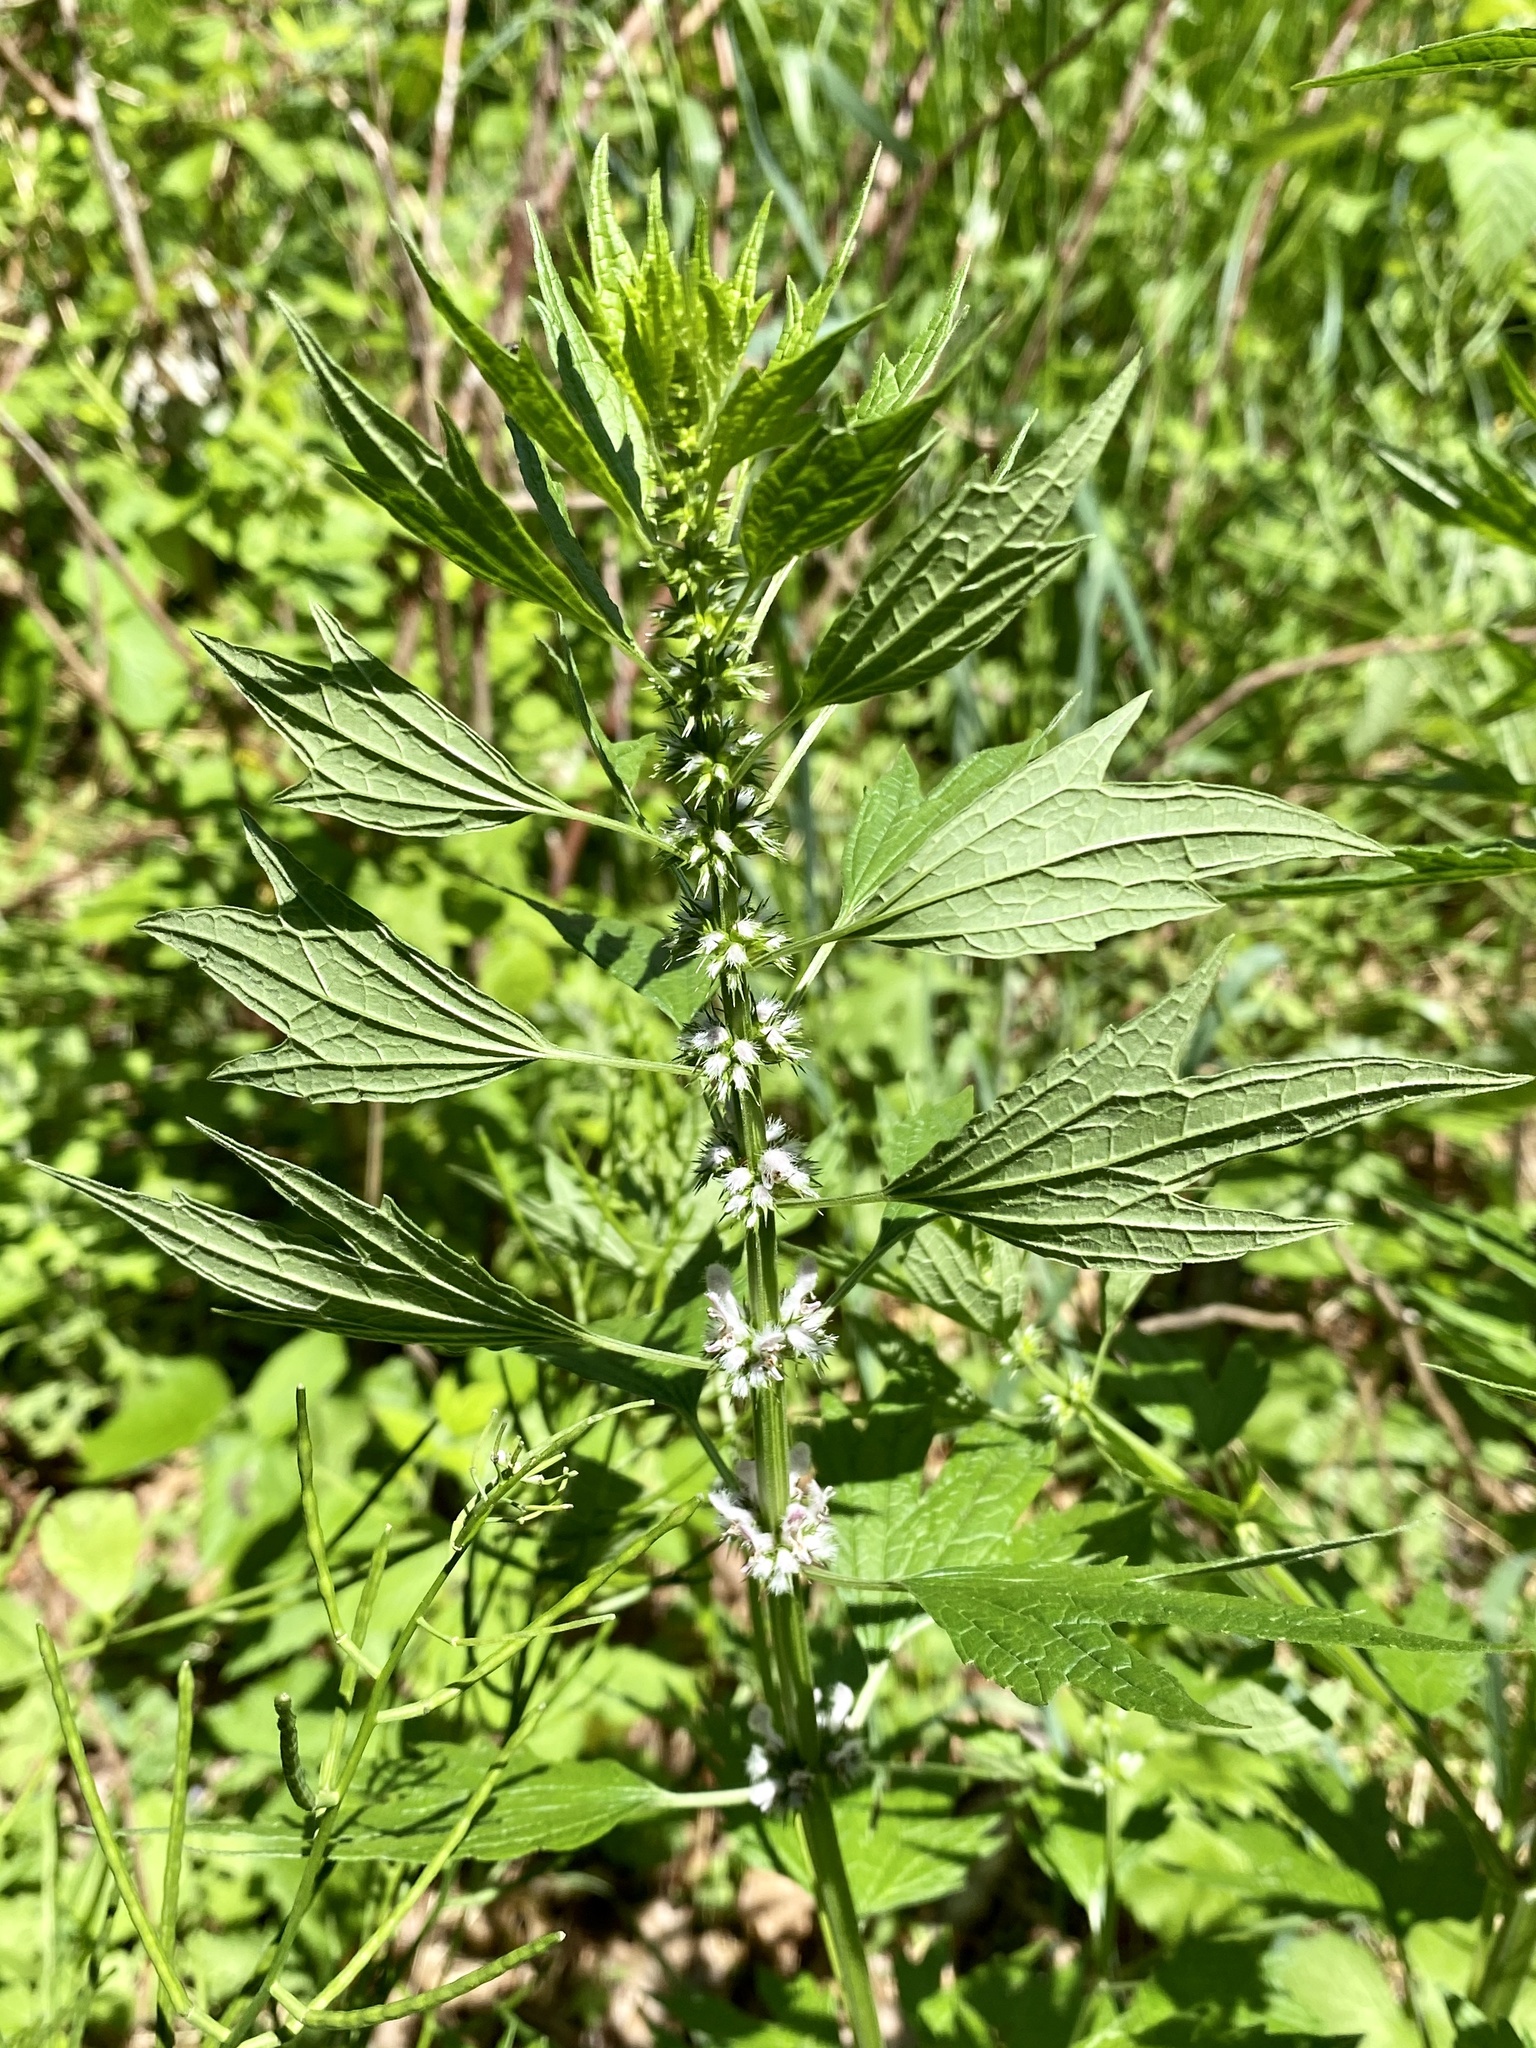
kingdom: Plantae
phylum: Tracheophyta
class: Magnoliopsida
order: Lamiales
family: Lamiaceae
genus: Leonurus
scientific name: Leonurus cardiaca
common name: Motherwort
